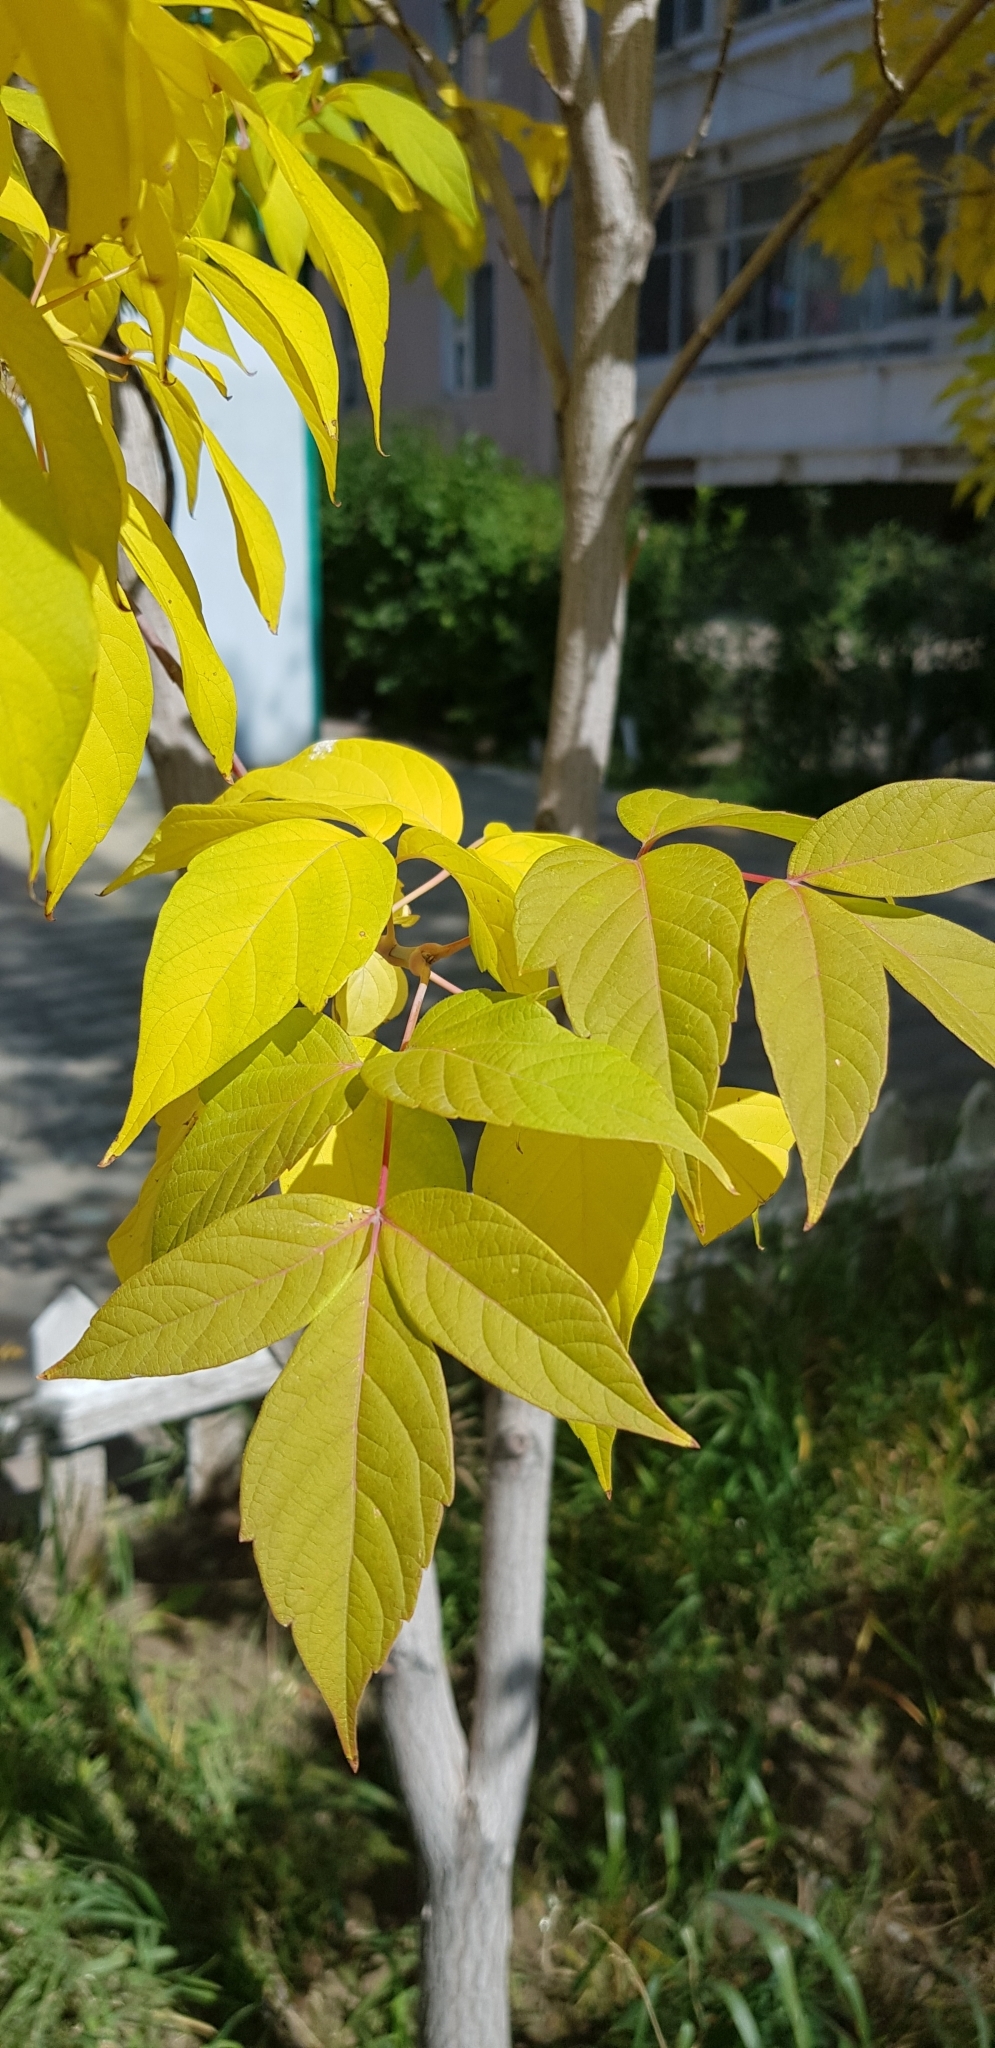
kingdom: Plantae
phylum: Tracheophyta
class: Magnoliopsida
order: Sapindales
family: Sapindaceae
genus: Acer
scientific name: Acer negundo
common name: Ashleaf maple
